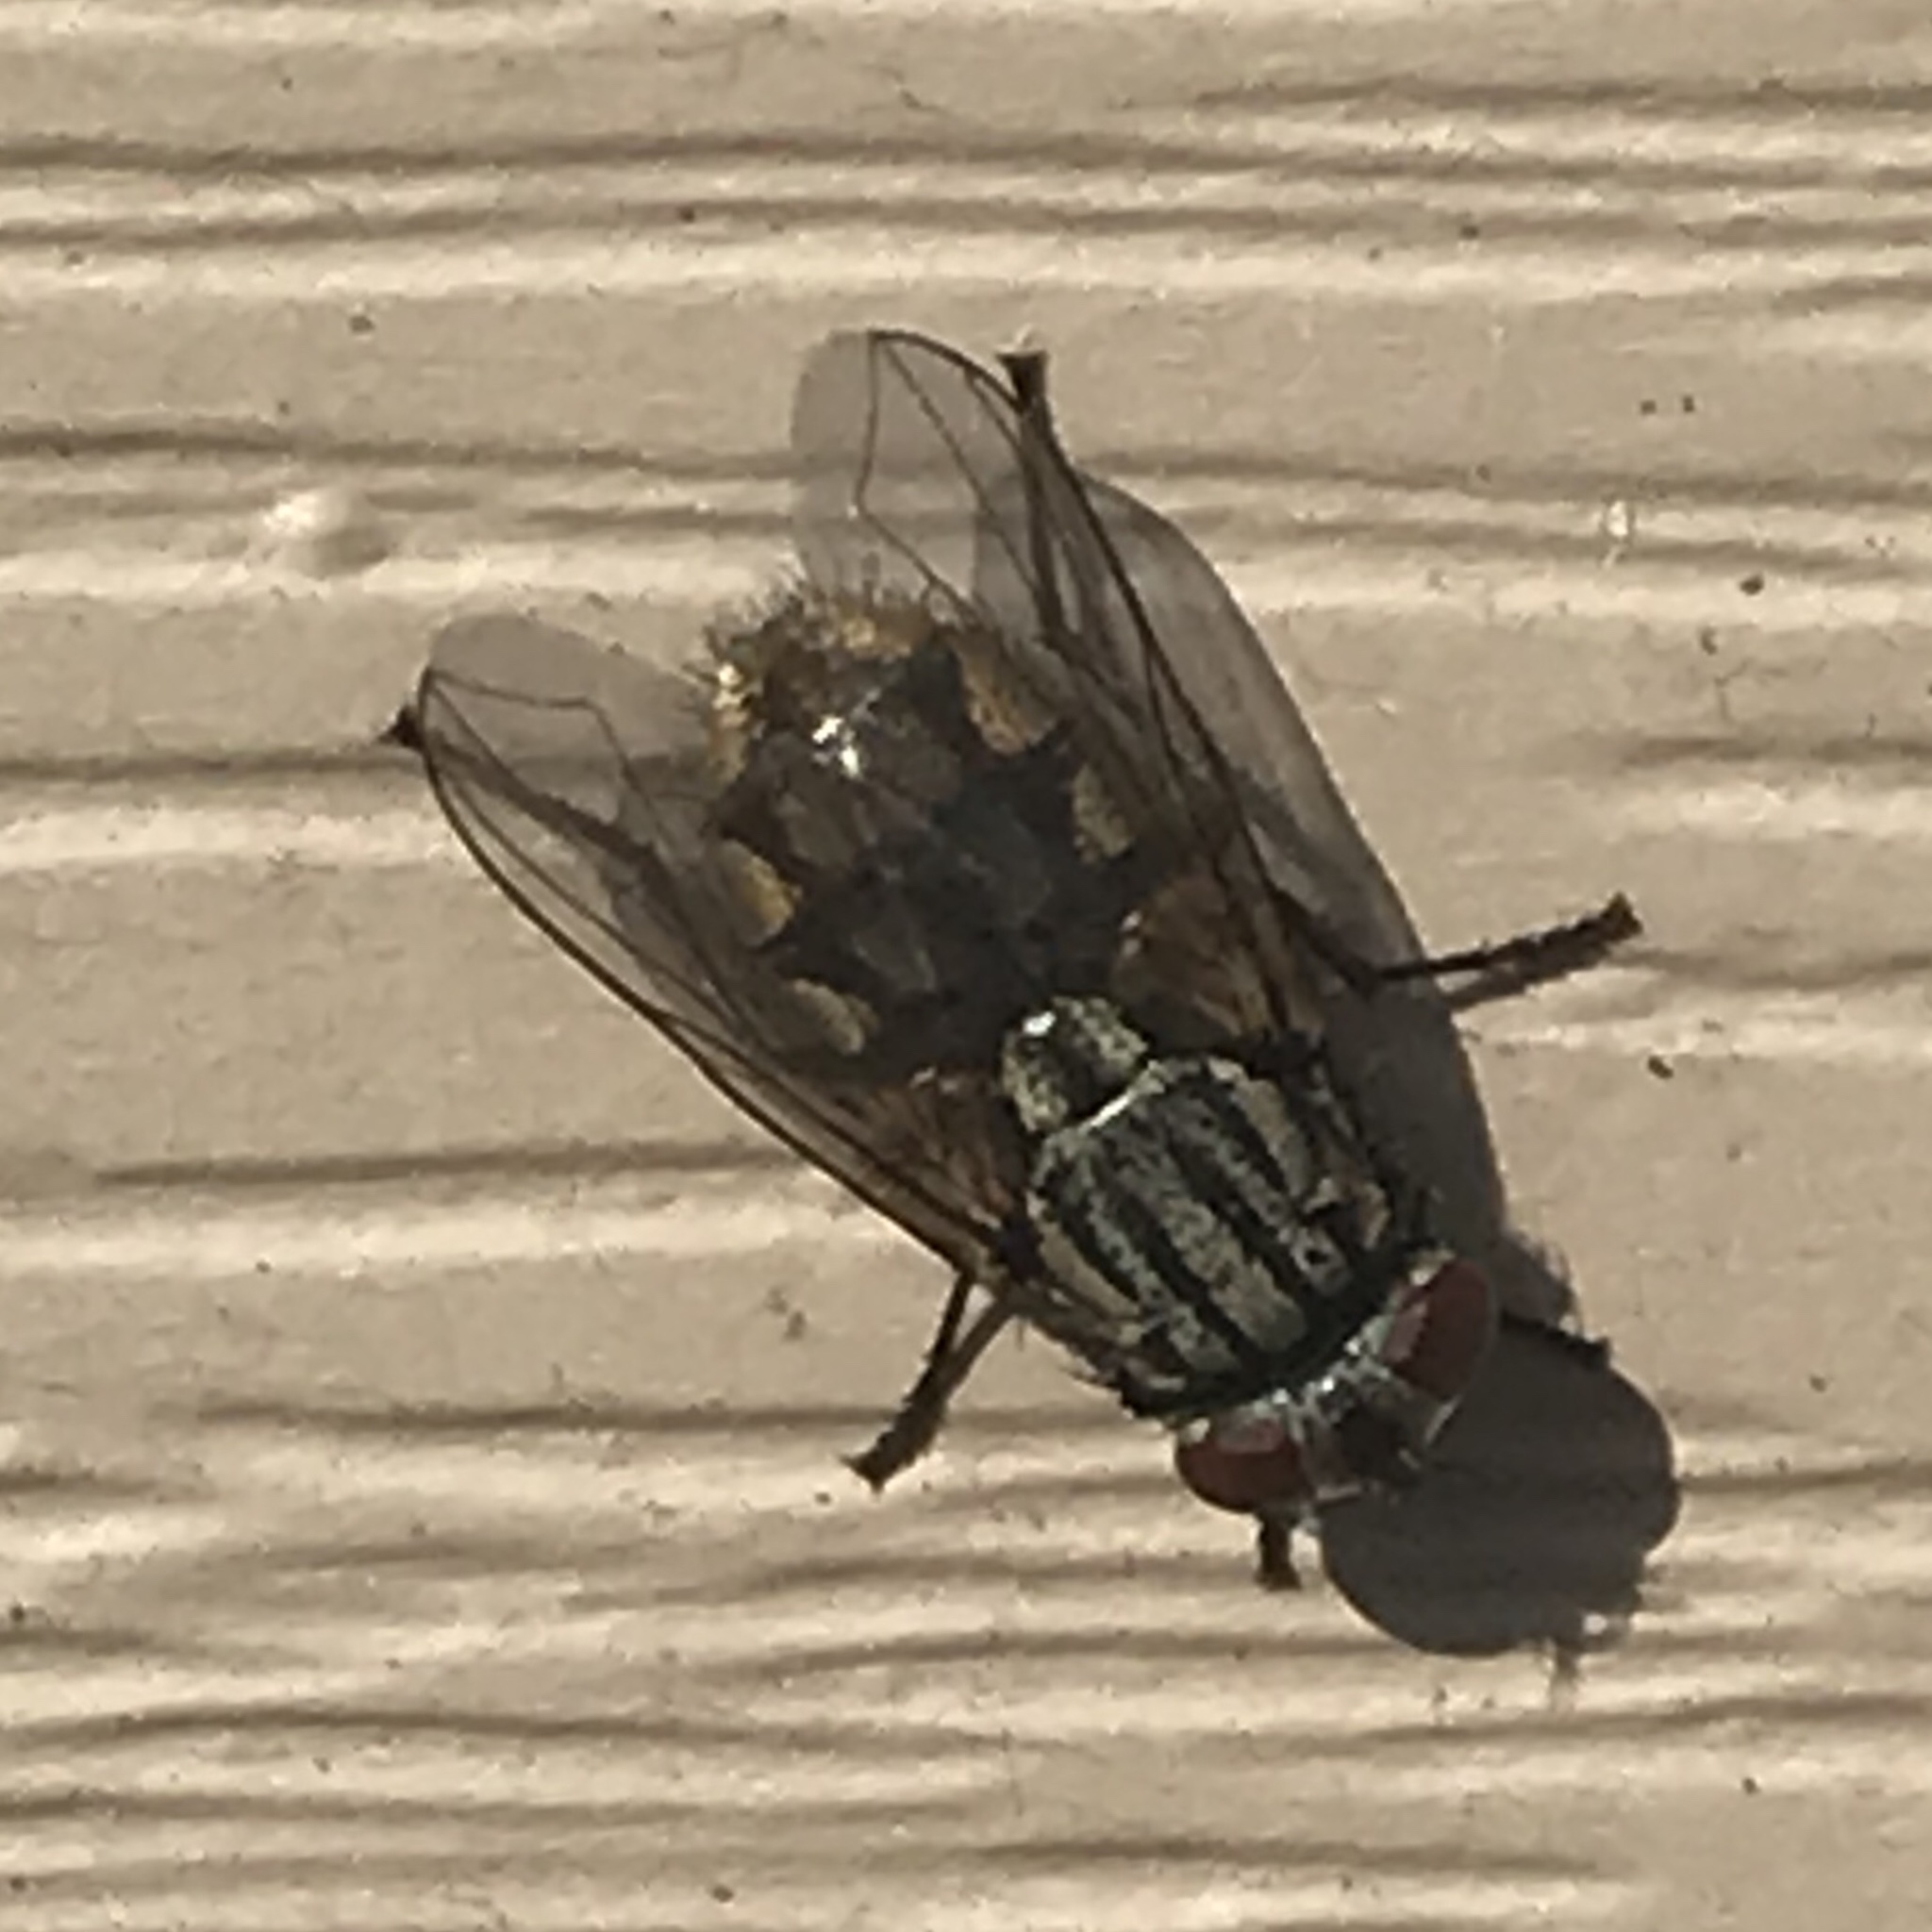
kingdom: Animalia
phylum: Arthropoda
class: Insecta
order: Diptera
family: Muscidae
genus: Musca
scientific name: Musca autumnalis
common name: Face fly
